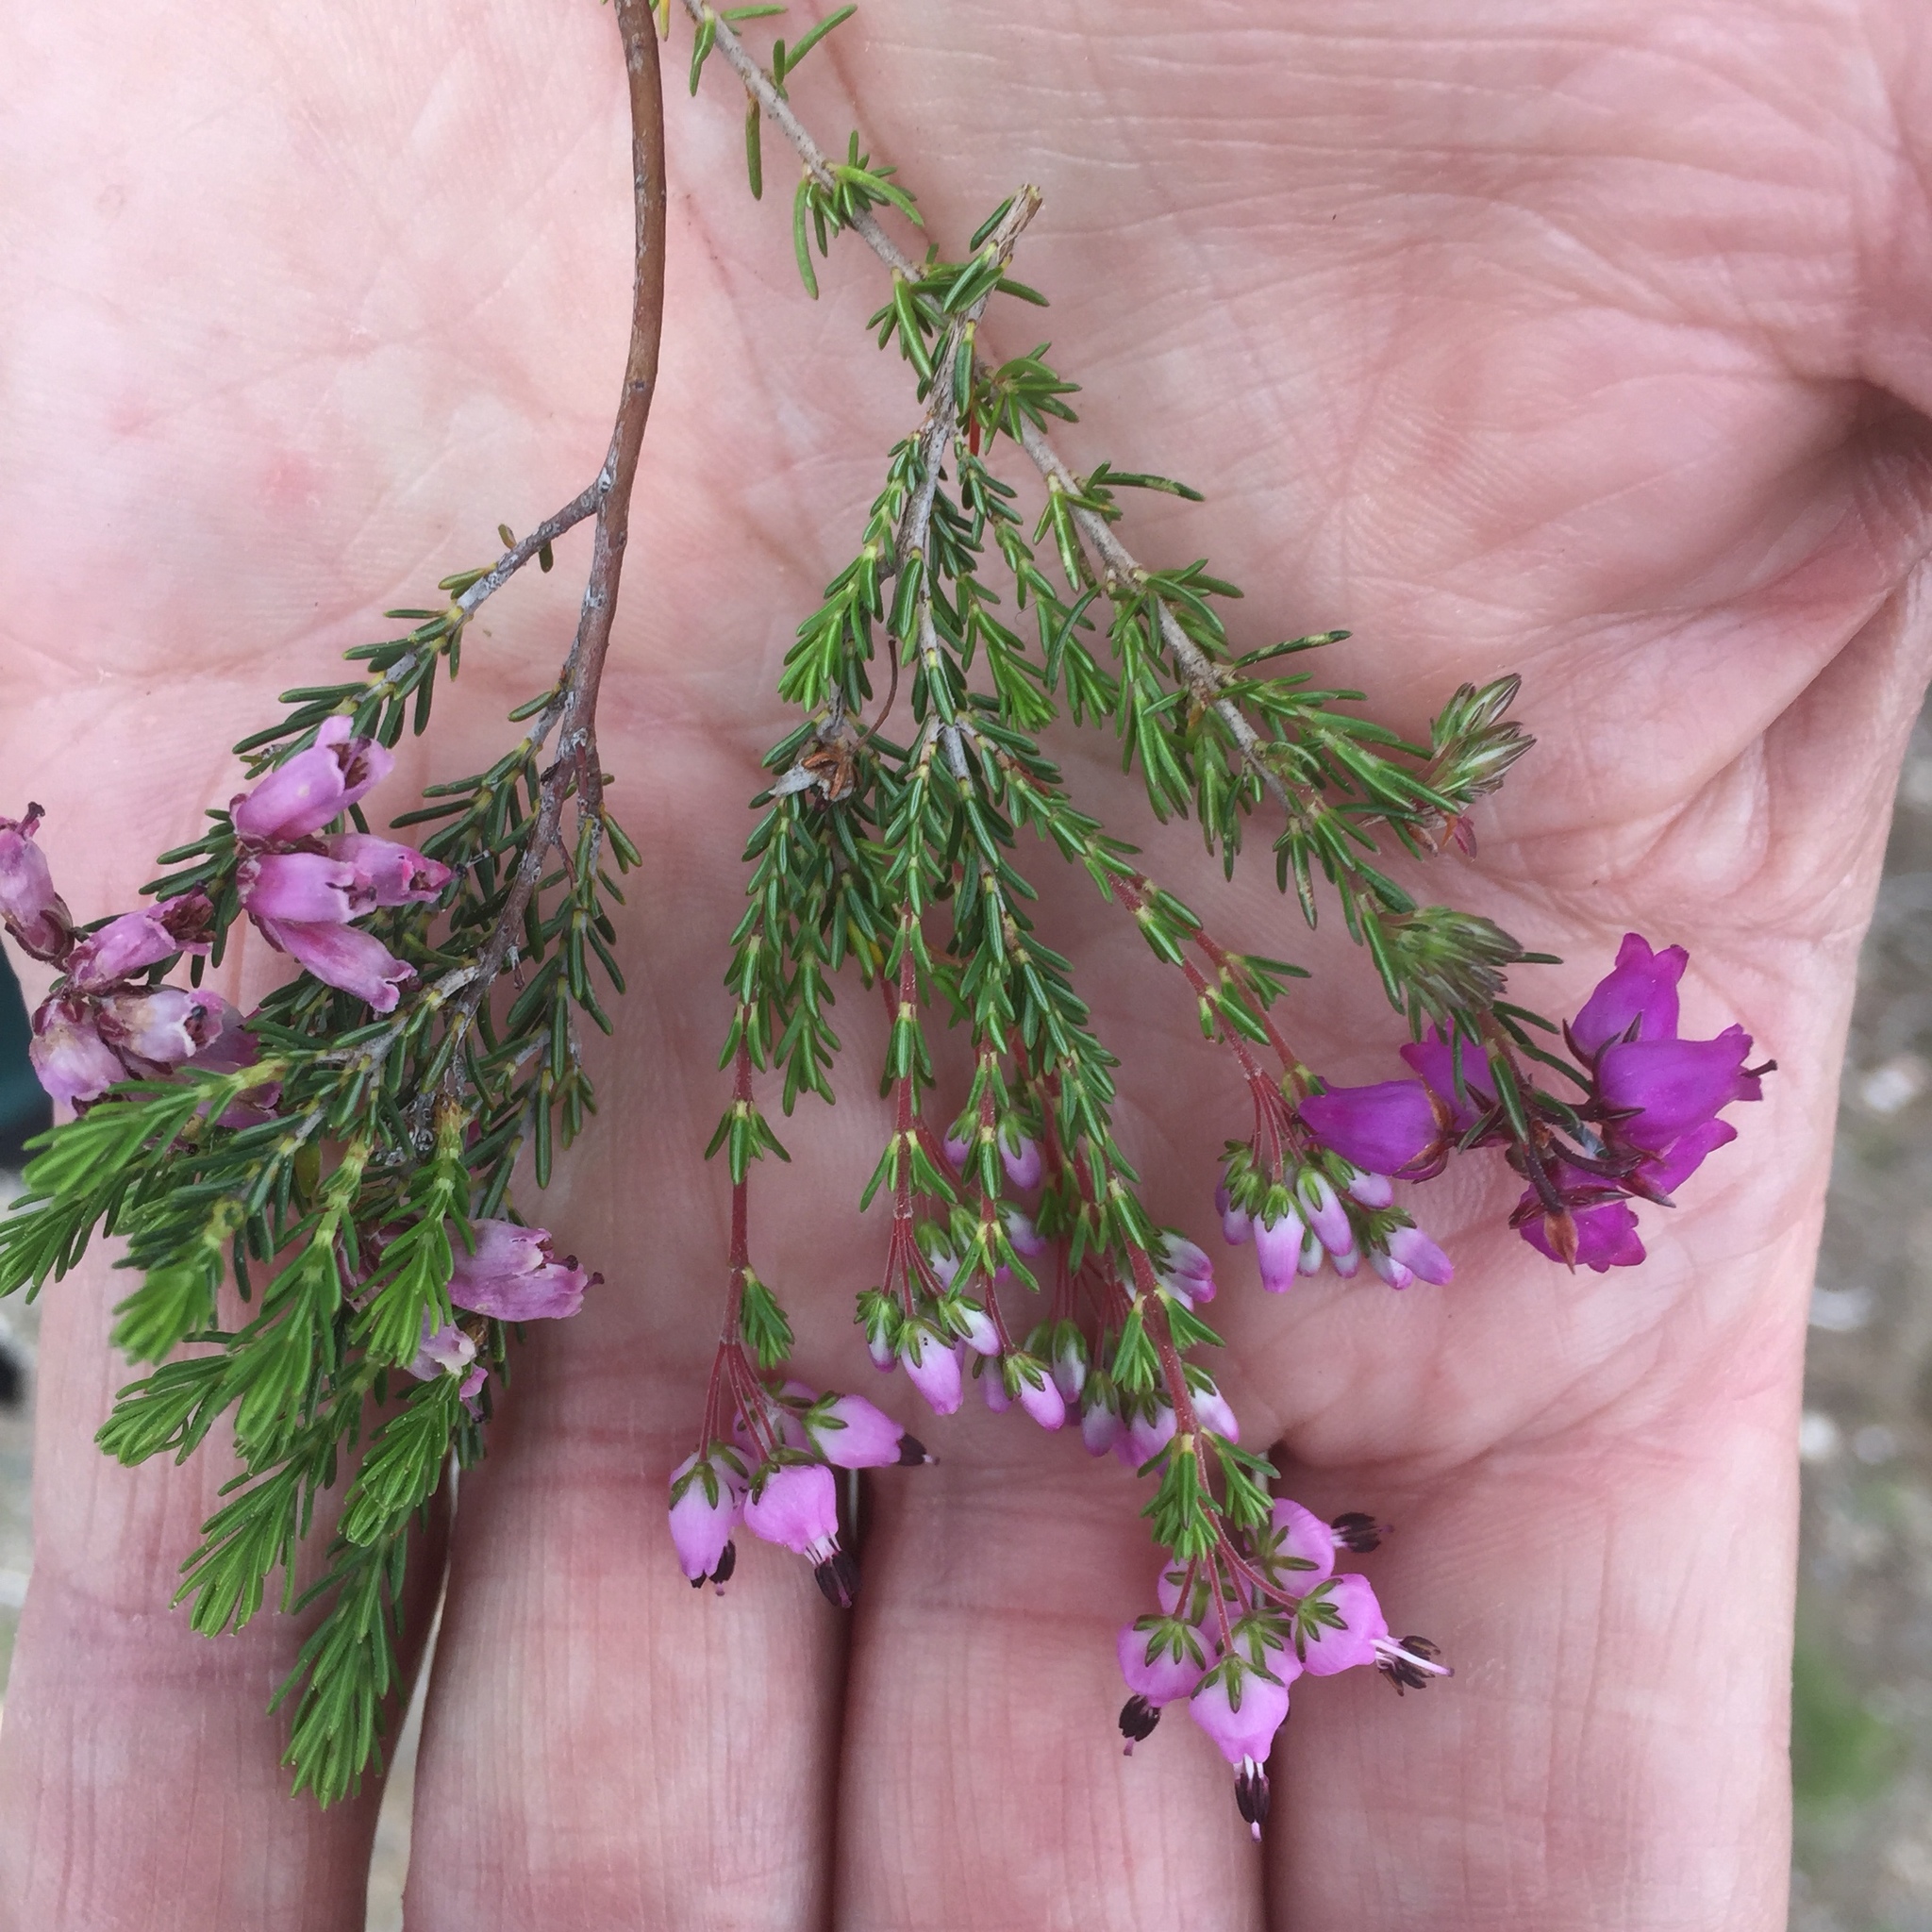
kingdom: Plantae
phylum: Tracheophyta
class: Magnoliopsida
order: Ericales
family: Ericaceae
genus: Erica
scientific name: Erica australis
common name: Spanish heath
